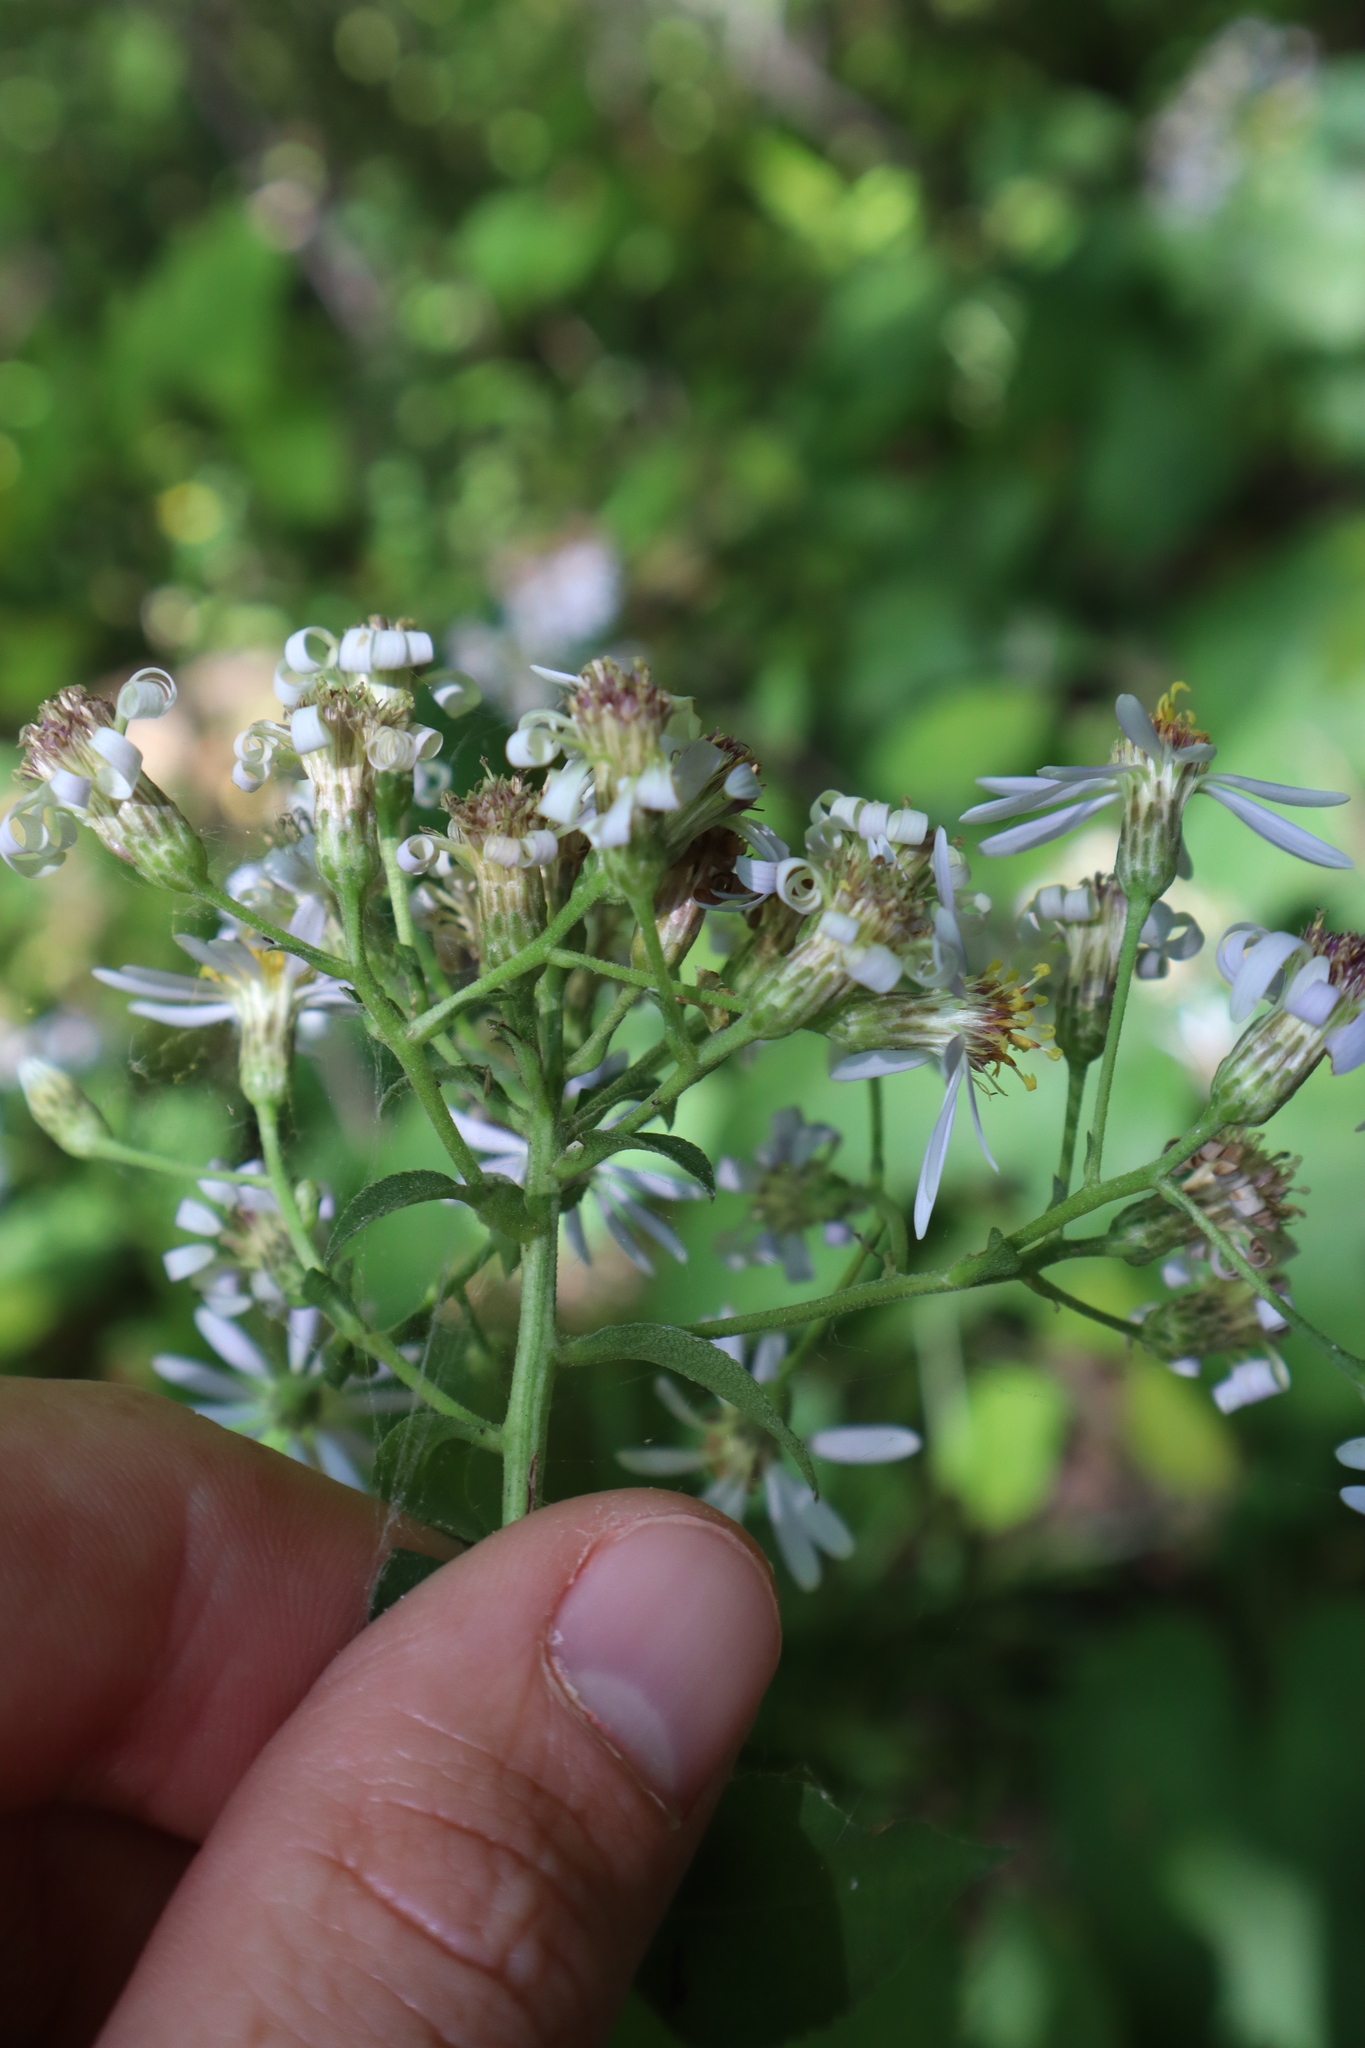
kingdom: Plantae
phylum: Tracheophyta
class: Magnoliopsida
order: Asterales
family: Asteraceae
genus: Eurybia
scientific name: Eurybia macrophylla
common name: Big-leaved aster
